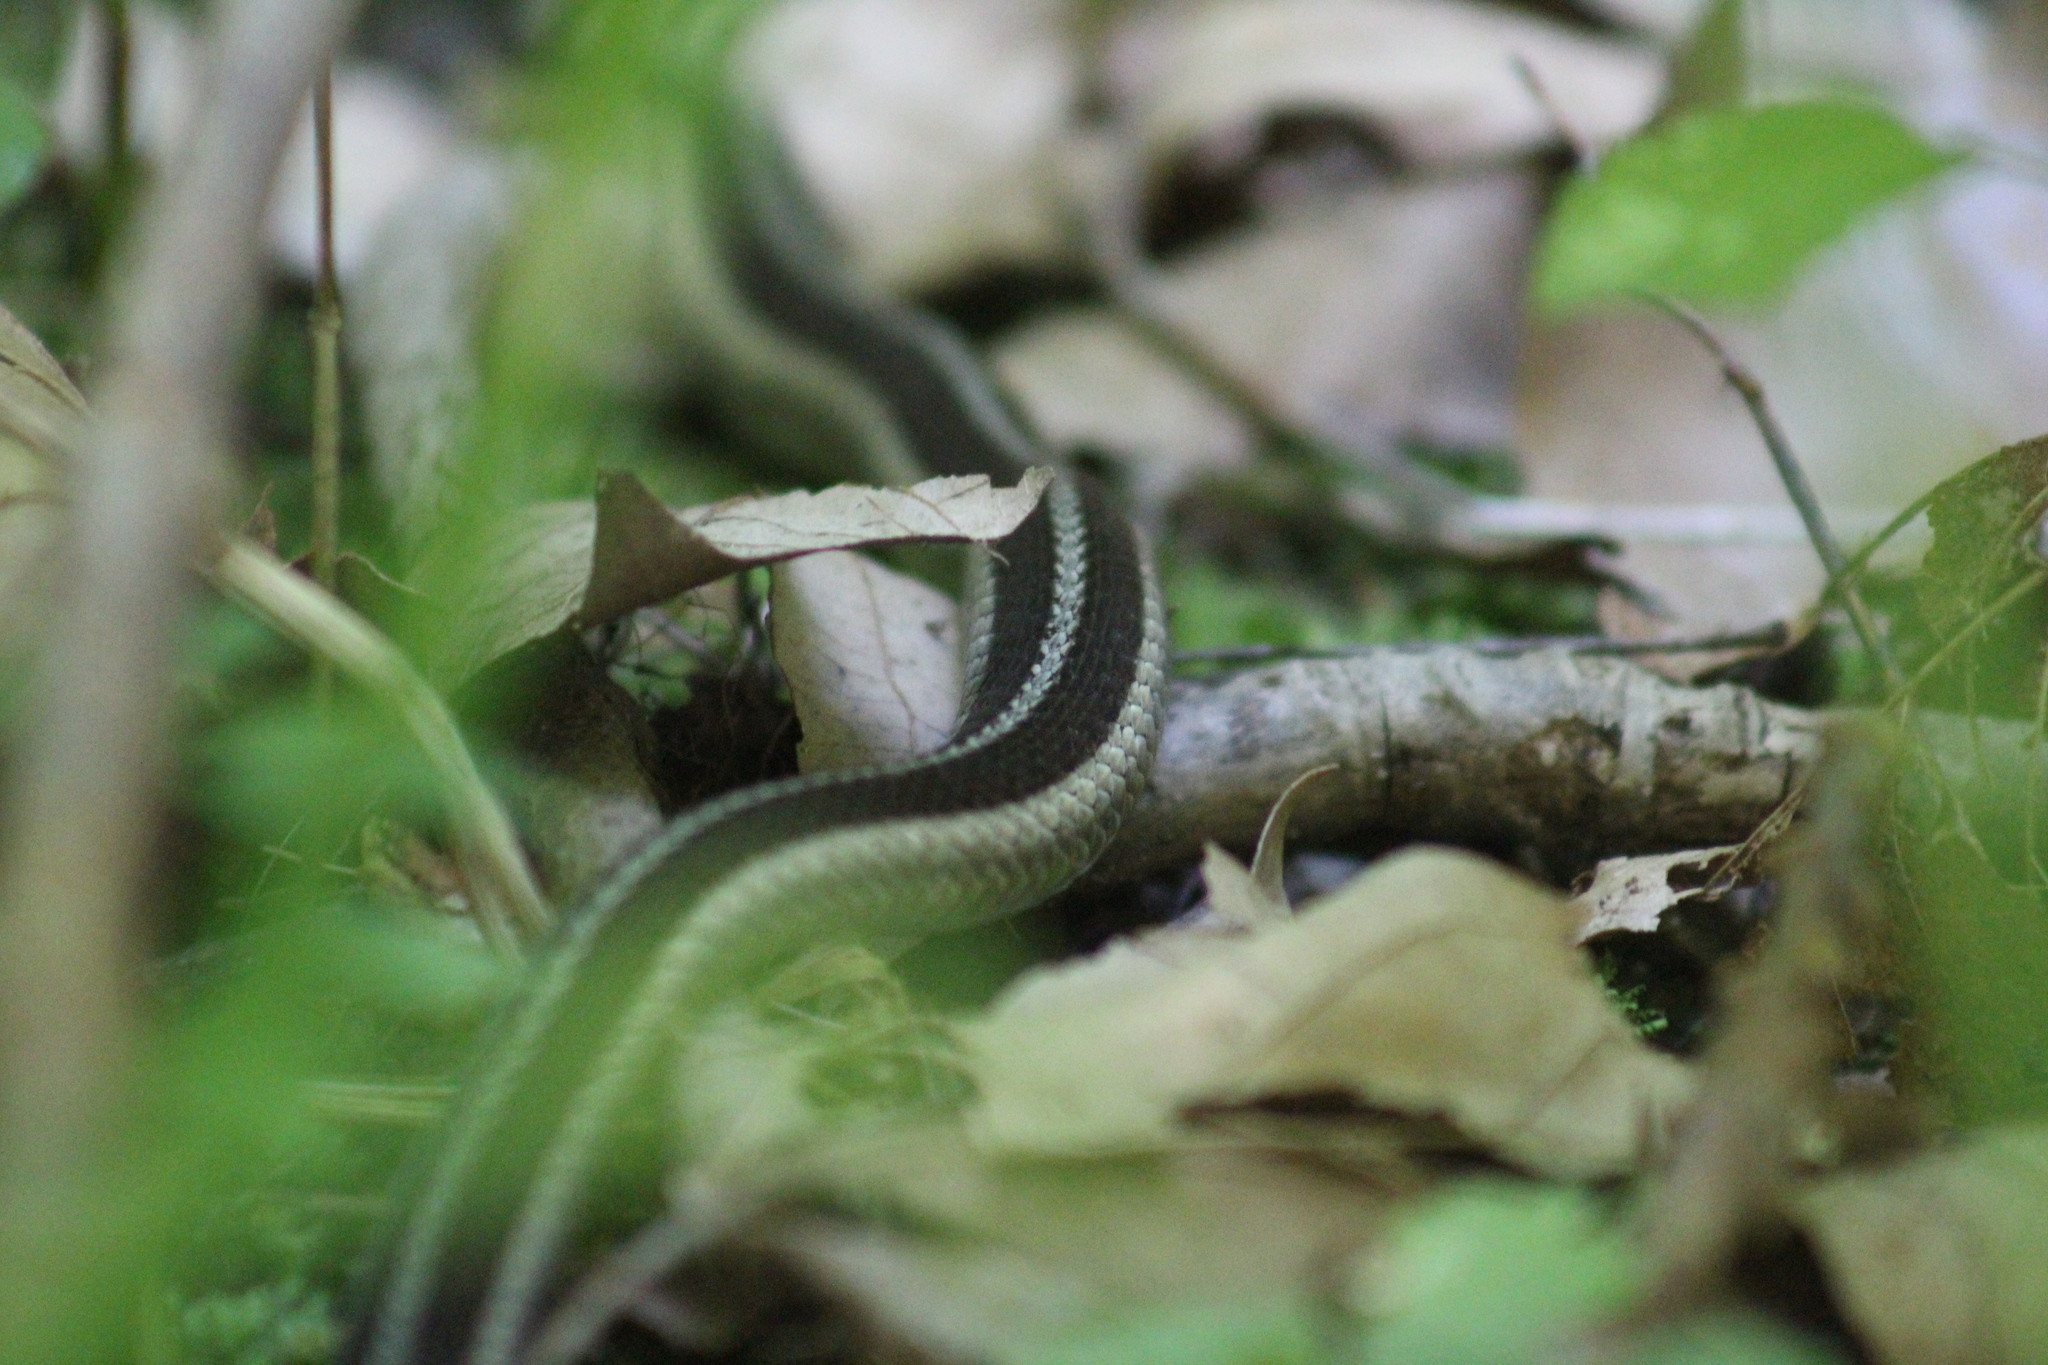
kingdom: Animalia
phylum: Chordata
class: Squamata
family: Colubridae
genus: Thamnophis
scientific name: Thamnophis sirtalis
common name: Common garter snake
